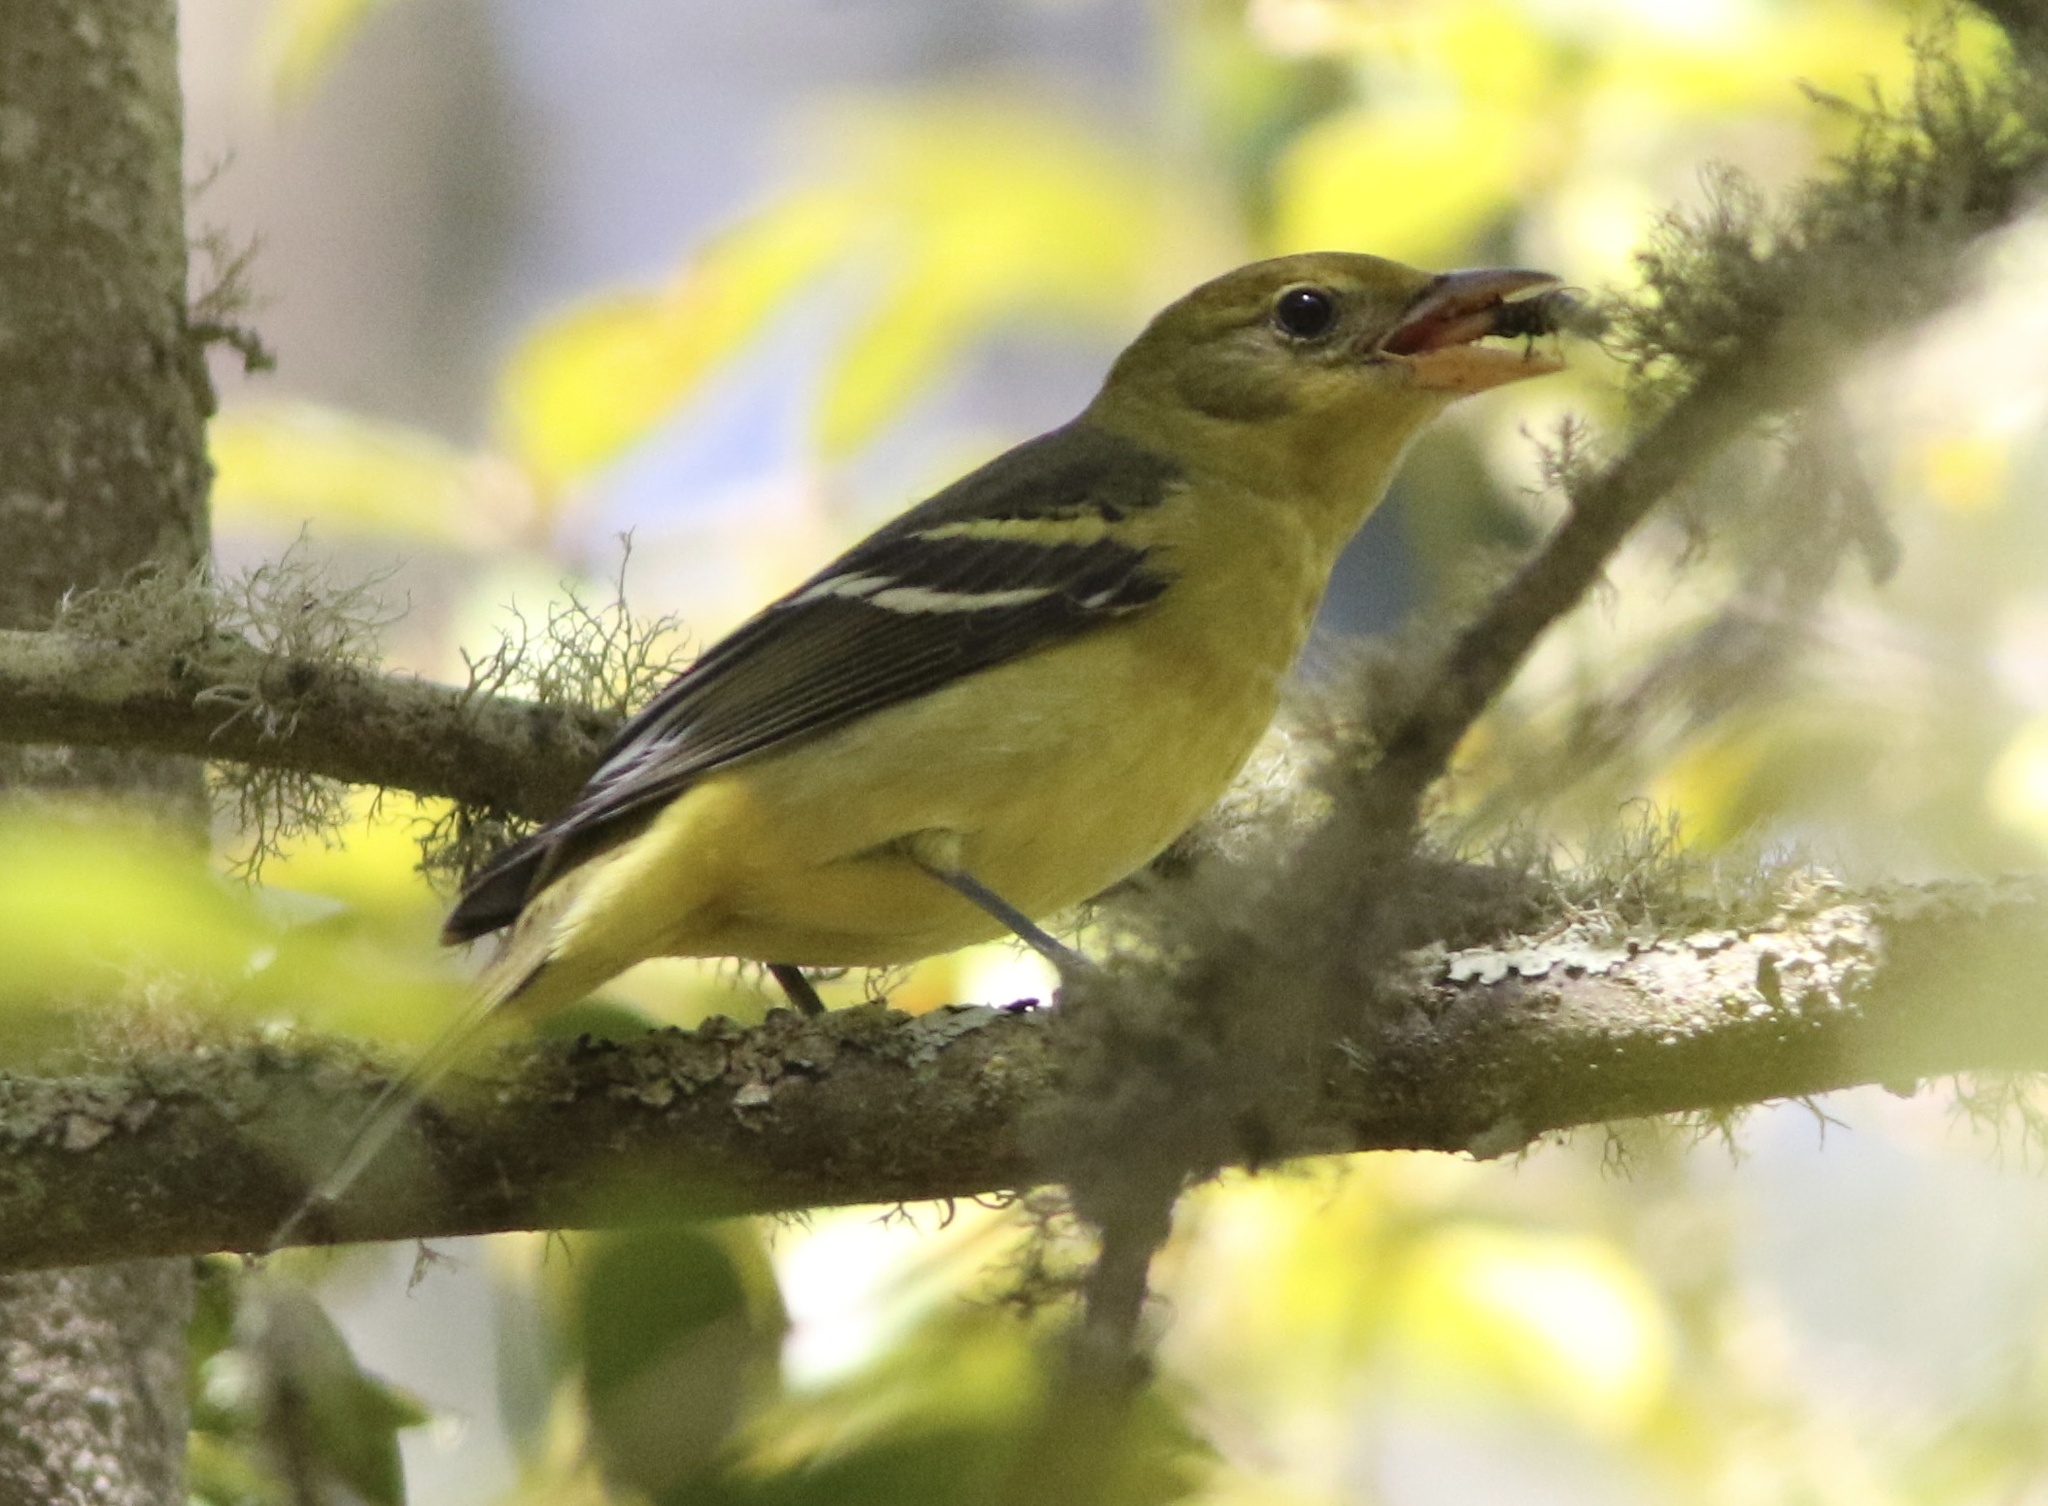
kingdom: Animalia
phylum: Chordata
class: Aves
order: Passeriformes
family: Cardinalidae
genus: Piranga
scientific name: Piranga ludoviciana
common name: Western tanager
